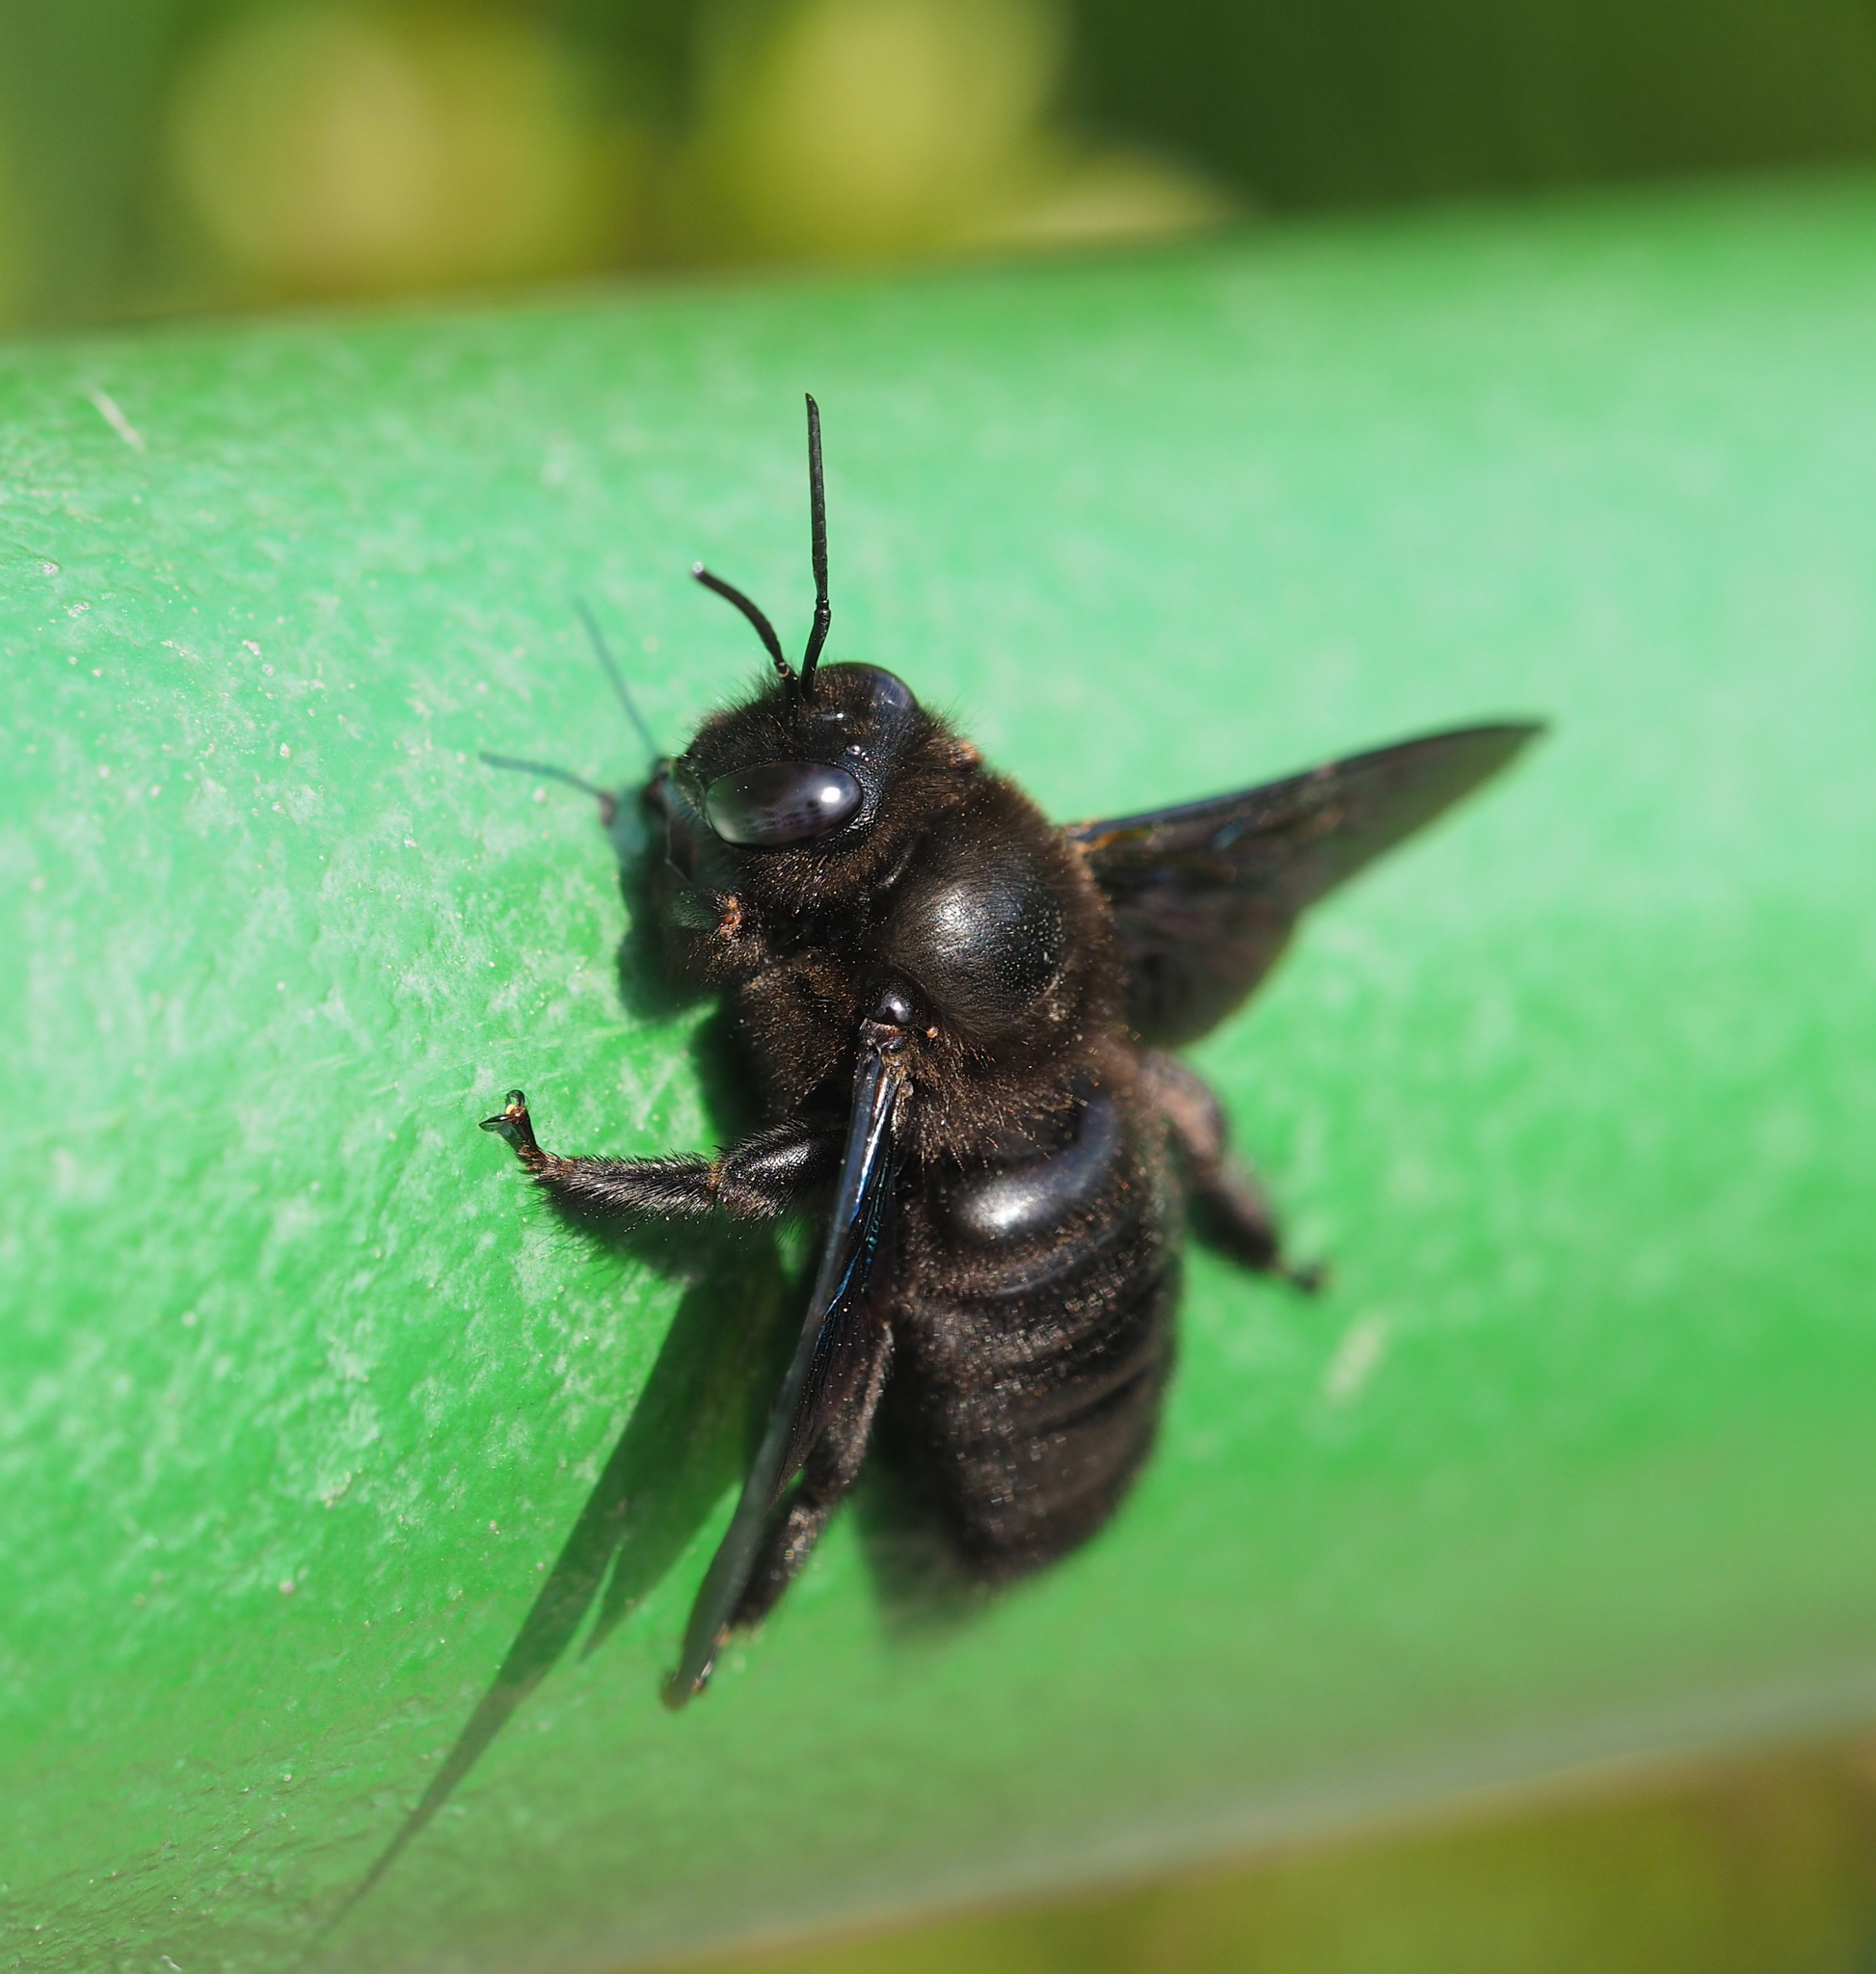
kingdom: Animalia
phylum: Arthropoda
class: Insecta
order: Hymenoptera
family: Apidae
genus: Xylocopa
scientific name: Xylocopa valga
